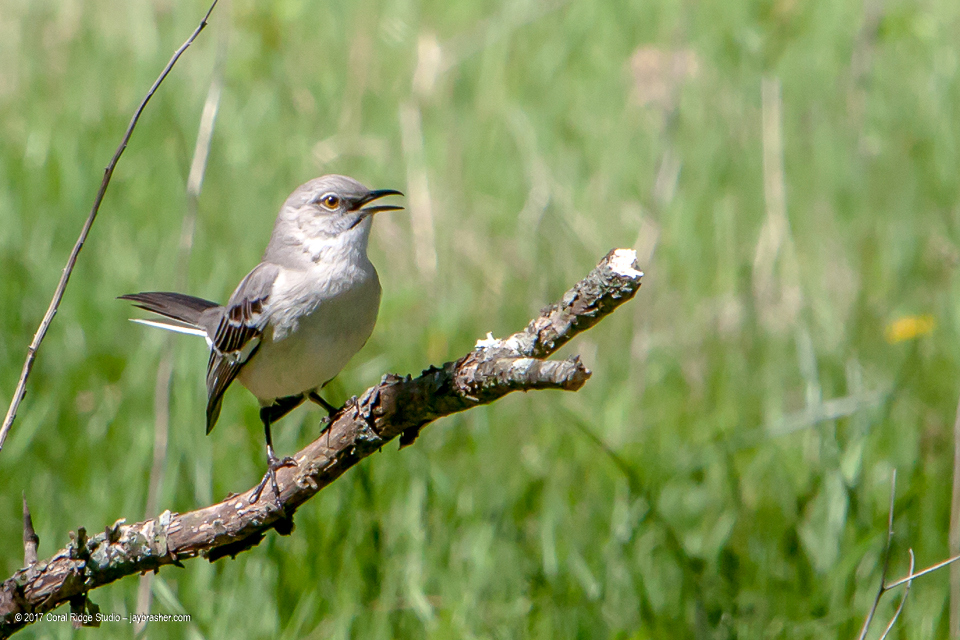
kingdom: Animalia
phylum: Chordata
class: Aves
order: Passeriformes
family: Mimidae
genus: Mimus
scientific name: Mimus polyglottos
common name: Northern mockingbird
